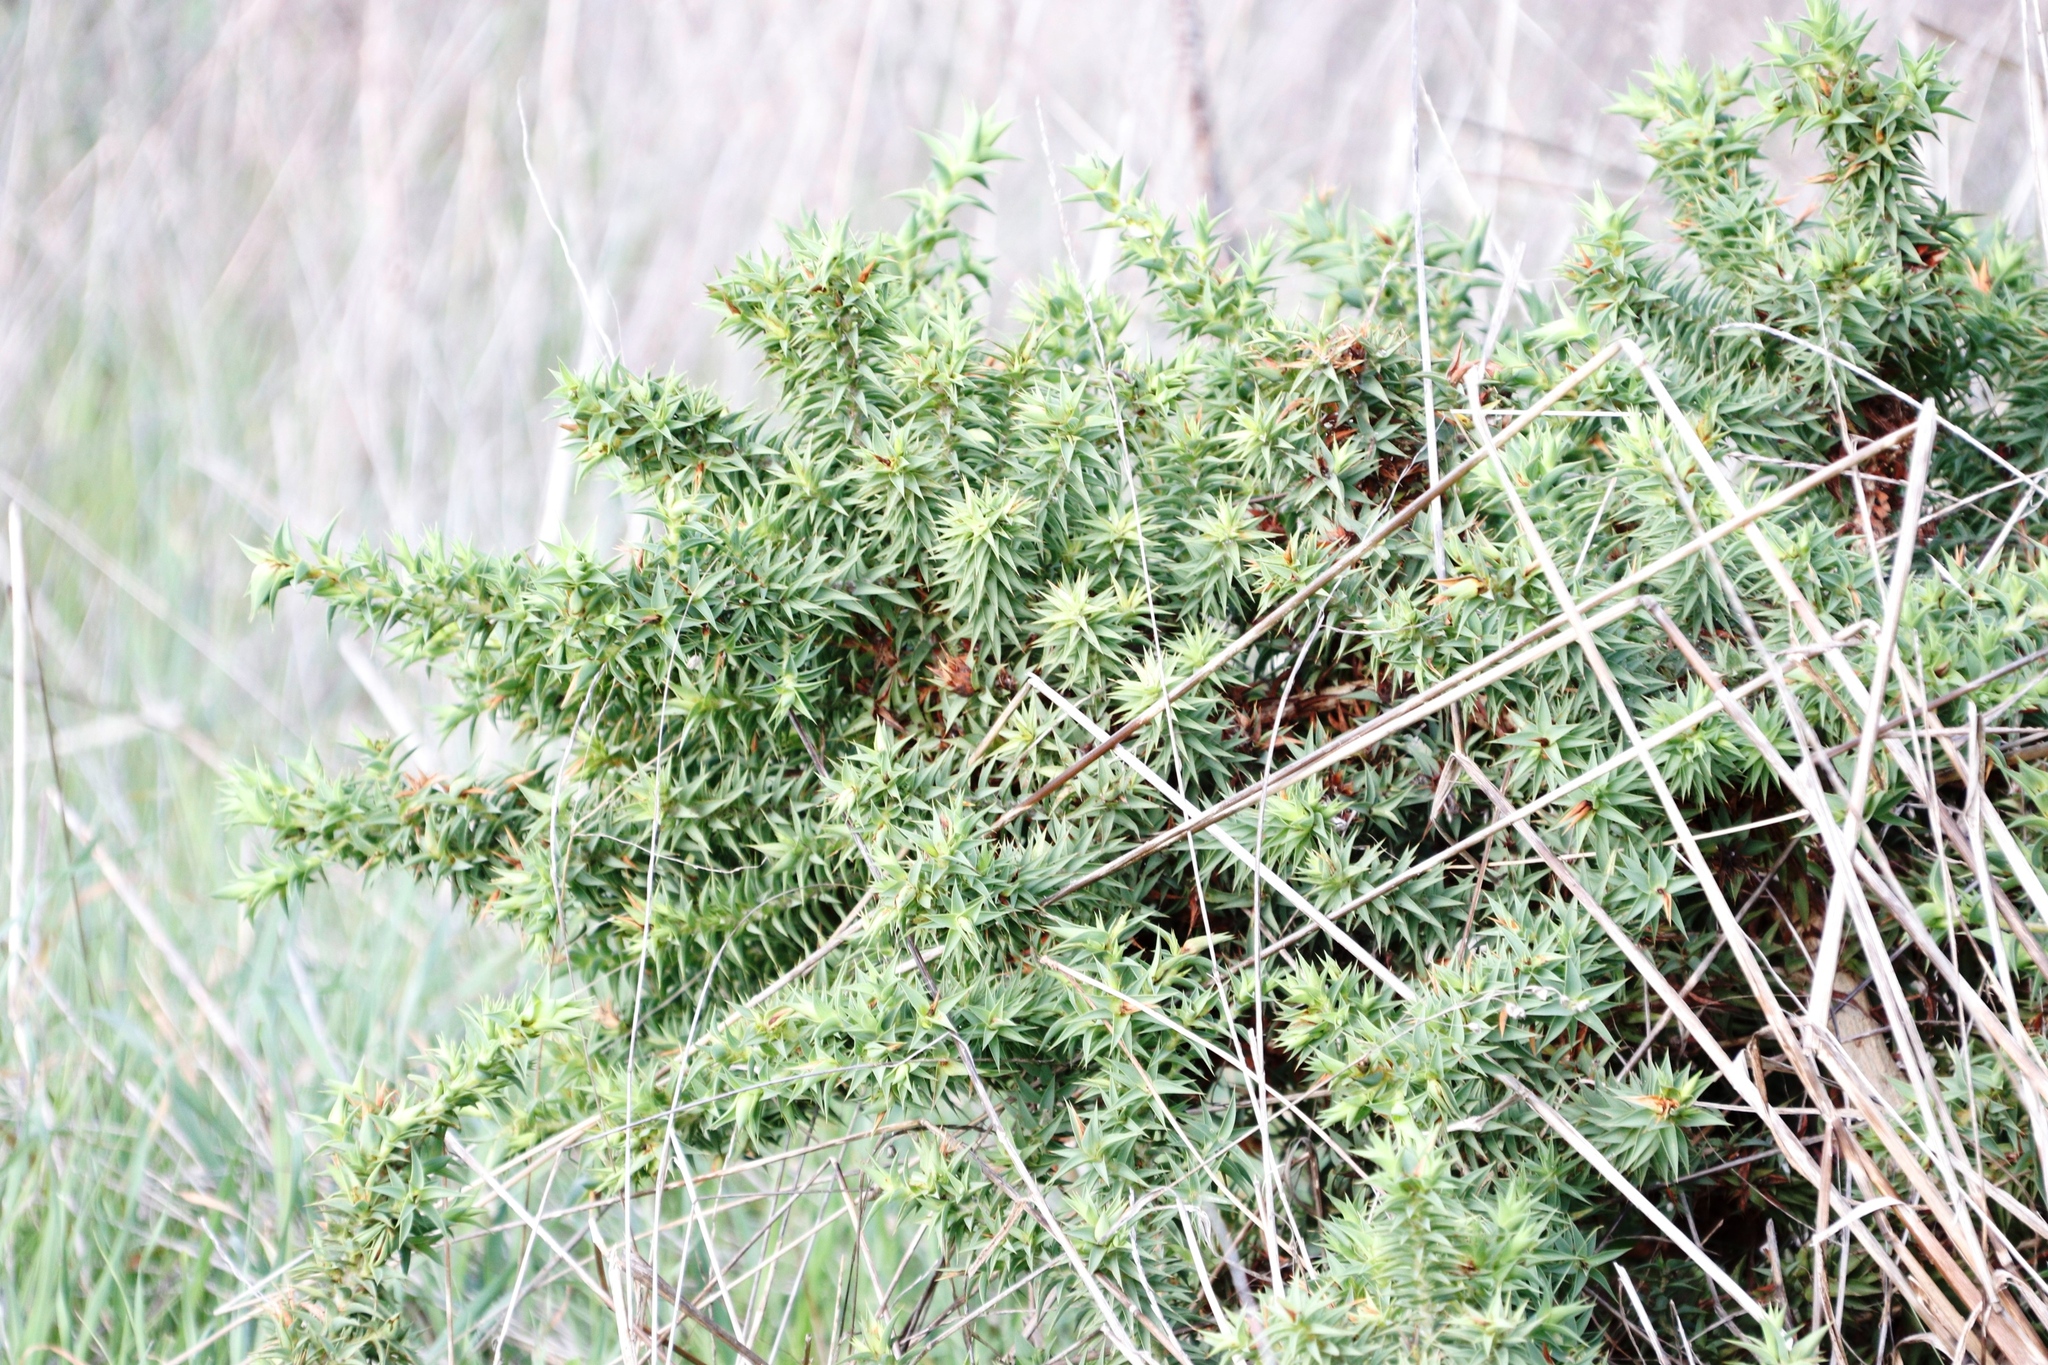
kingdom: Plantae
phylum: Tracheophyta
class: Magnoliopsida
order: Fabales
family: Fabaceae
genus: Aspalathus
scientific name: Aspalathus cordata
